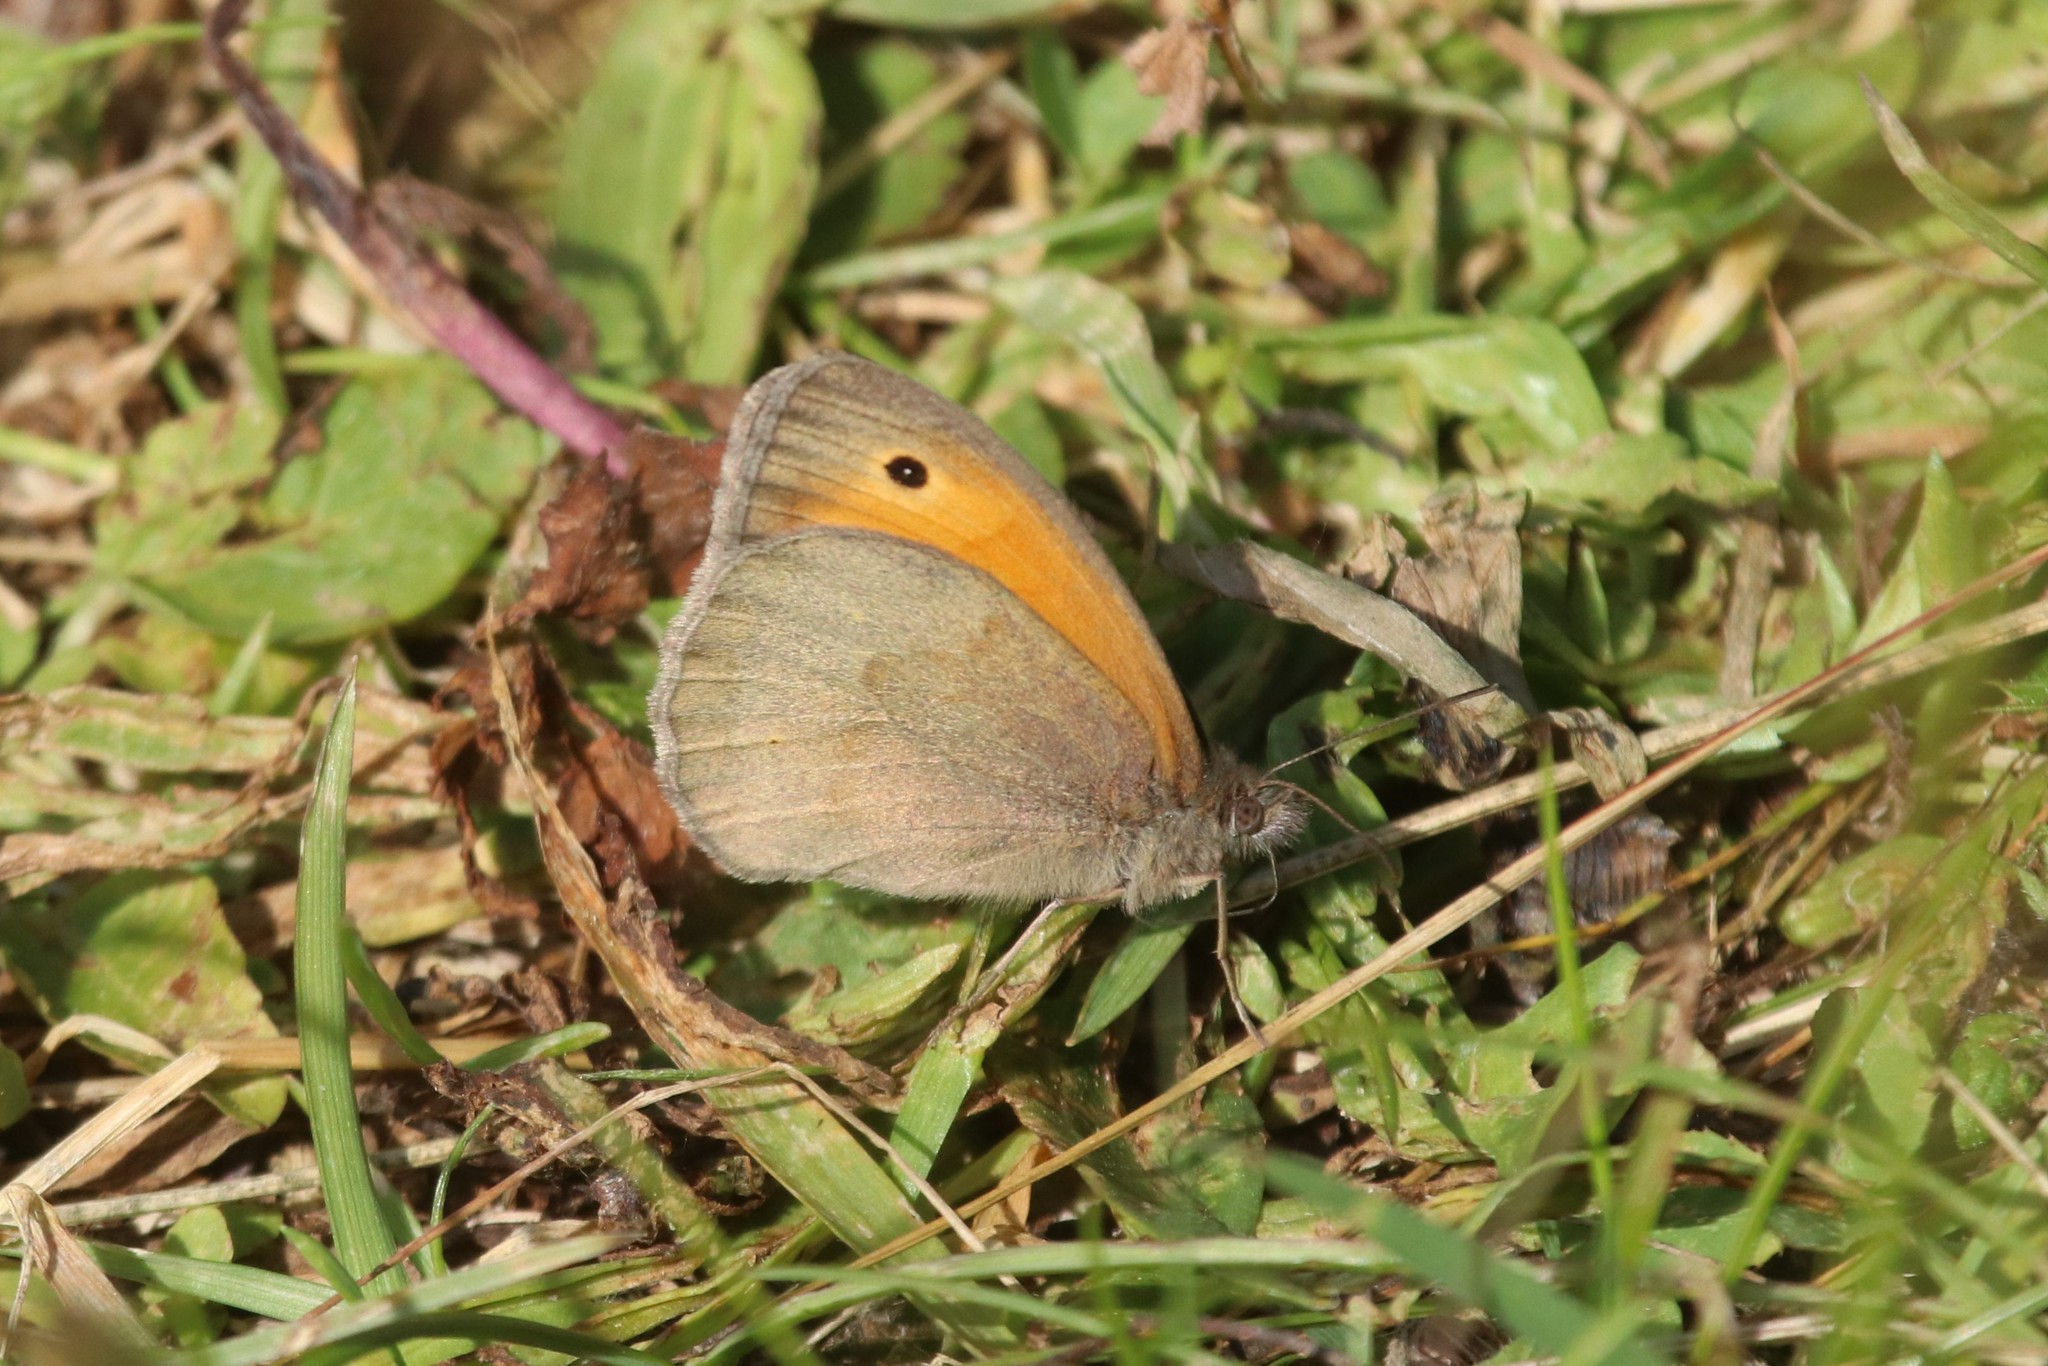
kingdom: Animalia
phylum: Arthropoda
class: Insecta
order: Lepidoptera
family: Nymphalidae
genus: Maniola
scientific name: Maniola jurtina
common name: Meadow brown
